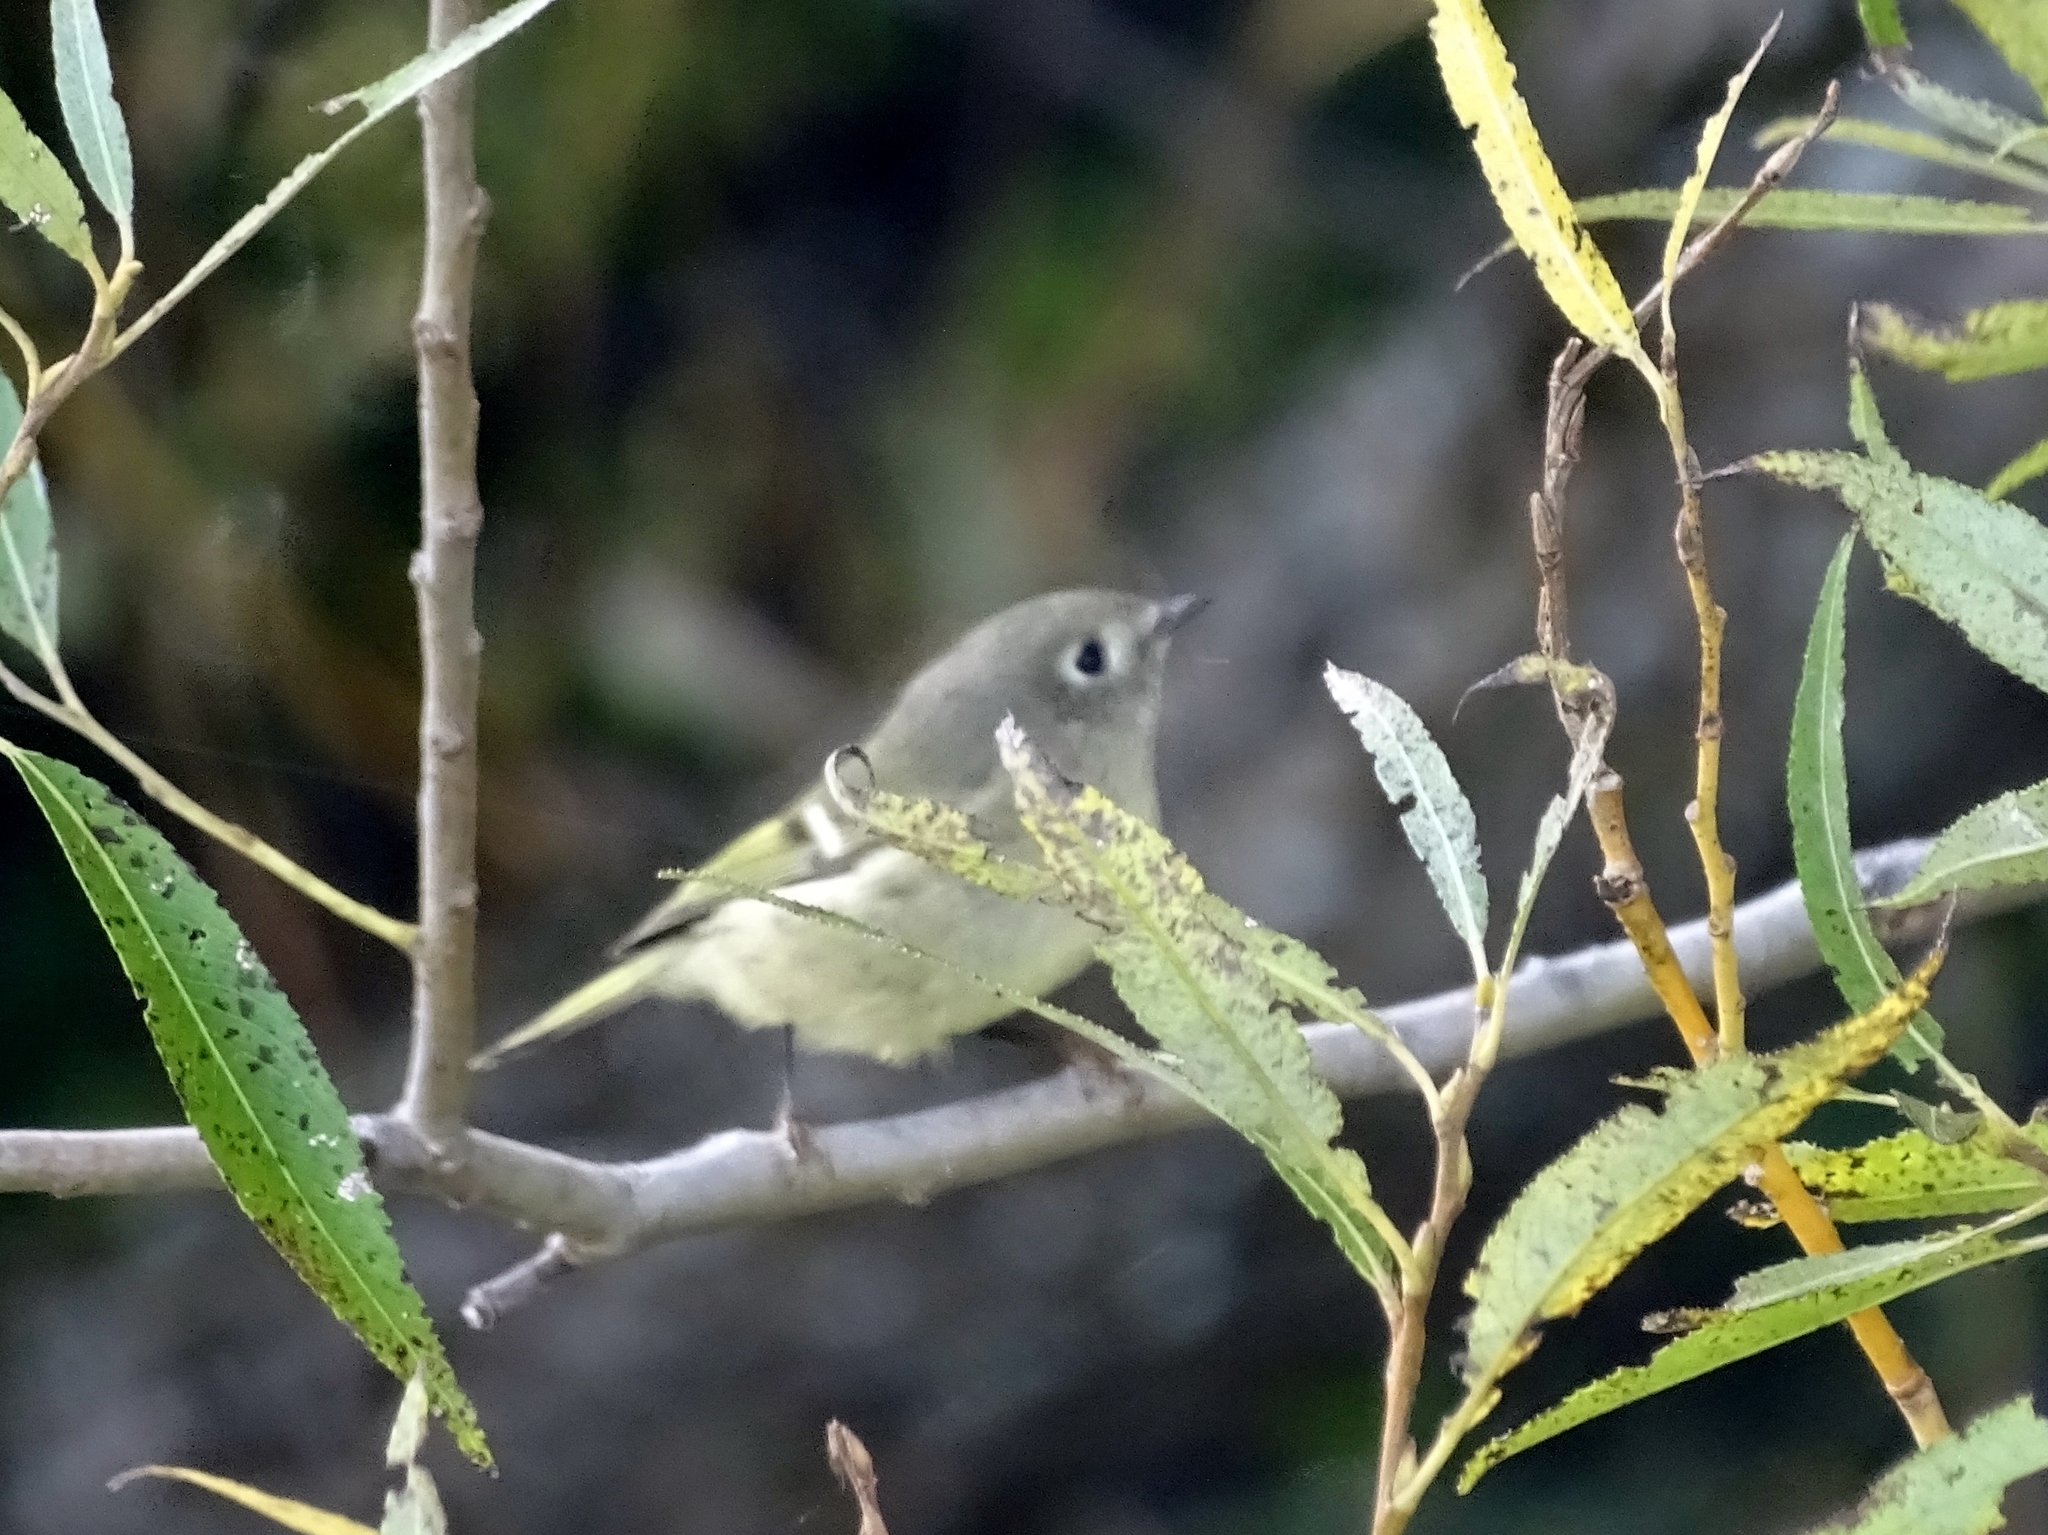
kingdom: Animalia
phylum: Chordata
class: Aves
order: Passeriformes
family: Regulidae
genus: Regulus
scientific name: Regulus calendula
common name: Ruby-crowned kinglet
